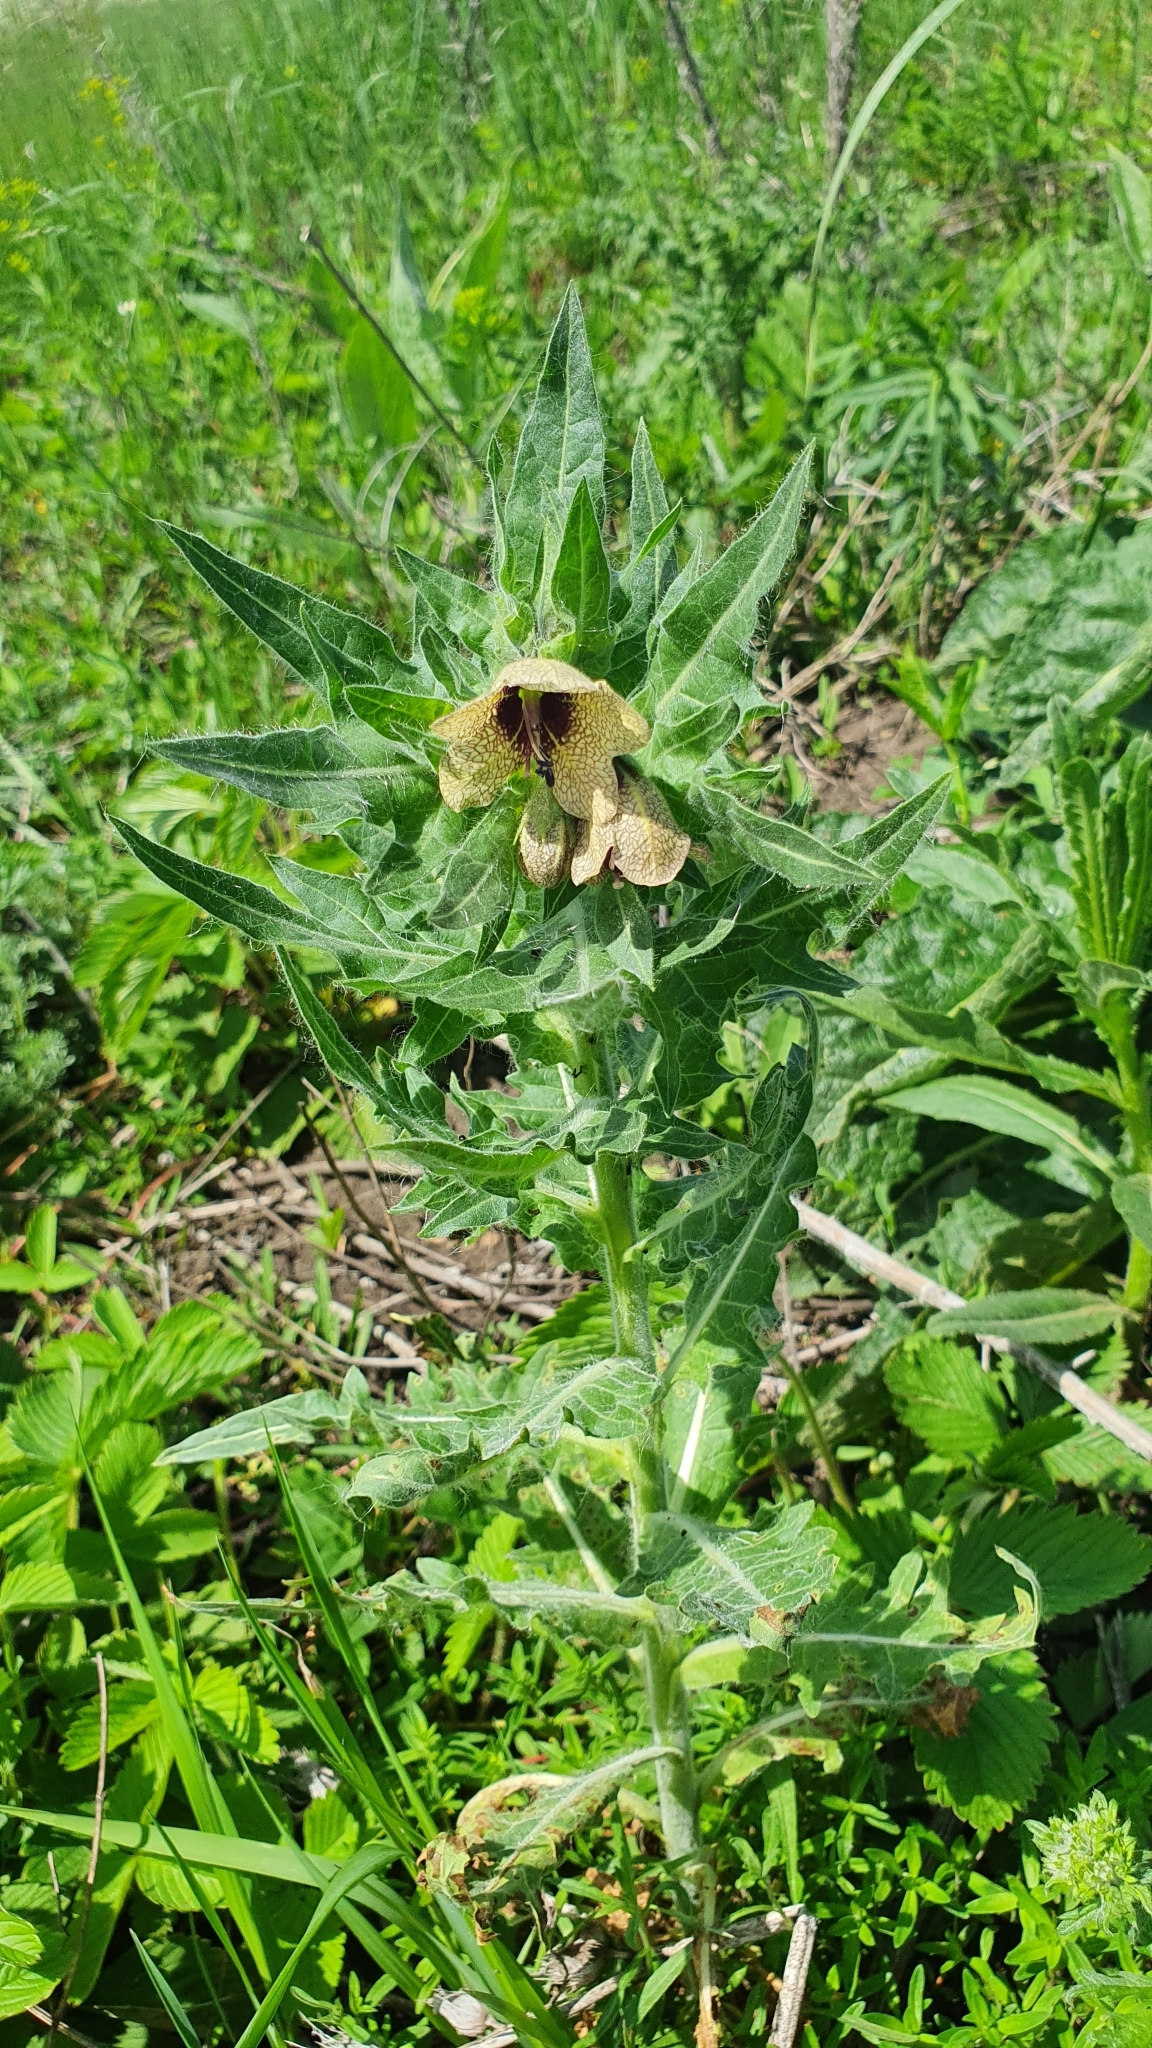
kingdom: Plantae
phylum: Tracheophyta
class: Magnoliopsida
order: Solanales
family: Solanaceae
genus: Hyoscyamus
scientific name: Hyoscyamus niger
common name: Henbane
